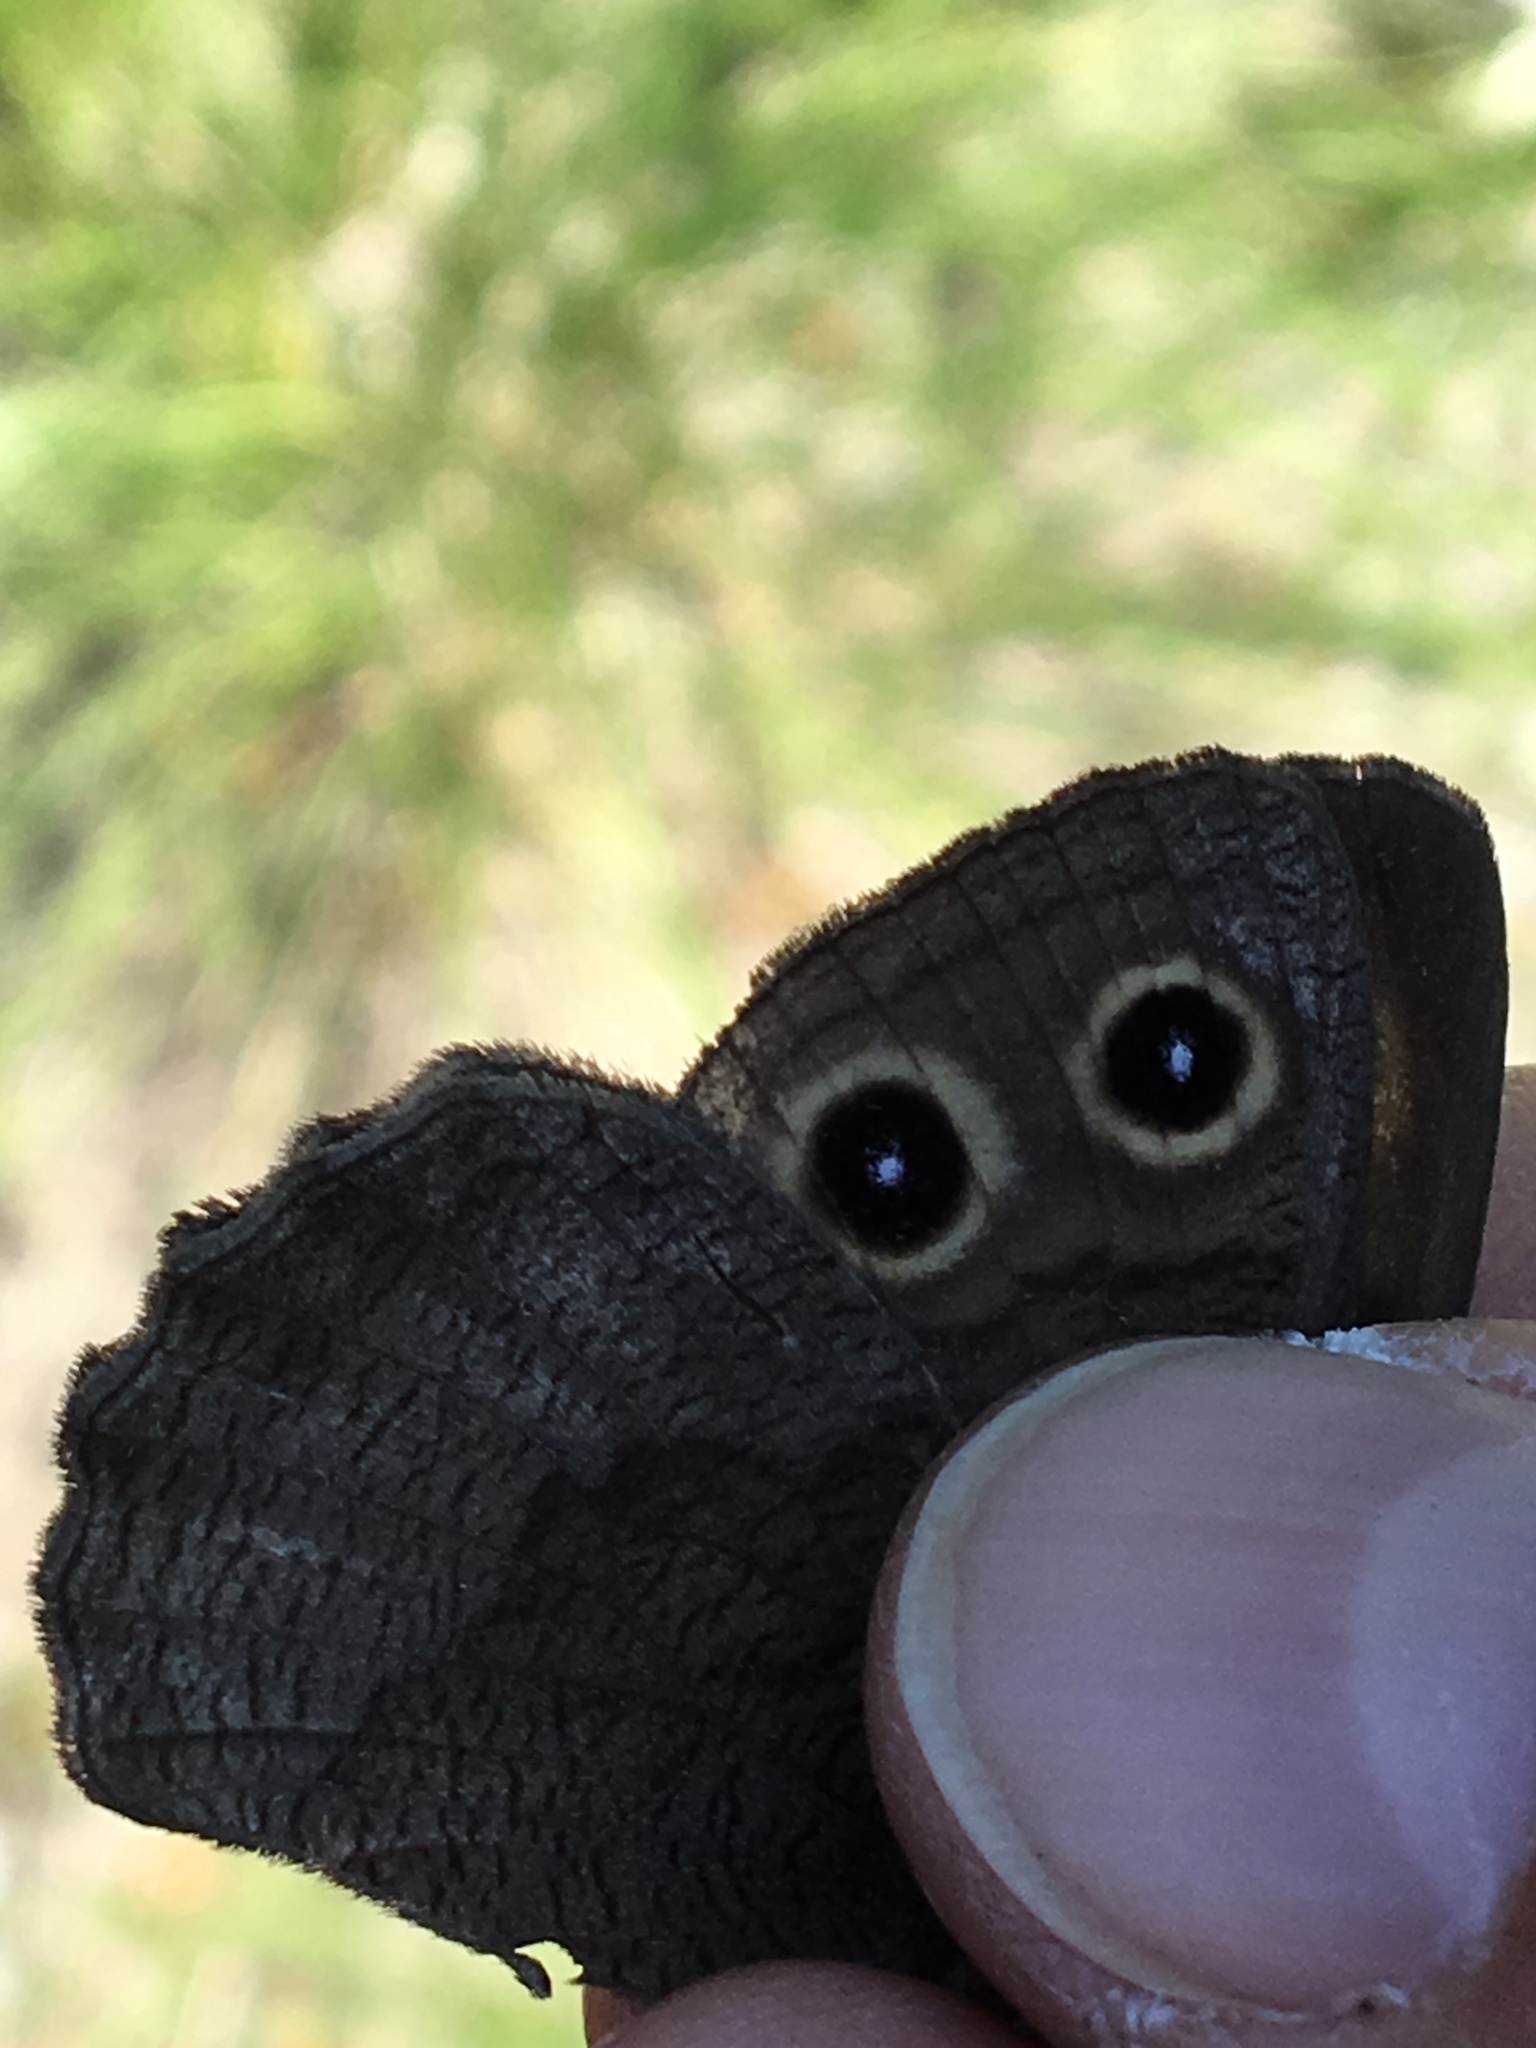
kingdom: Animalia
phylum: Arthropoda
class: Insecta
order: Lepidoptera
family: Nymphalidae
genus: Cercyonis
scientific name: Cercyonis pegala
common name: Common wood-nymph
